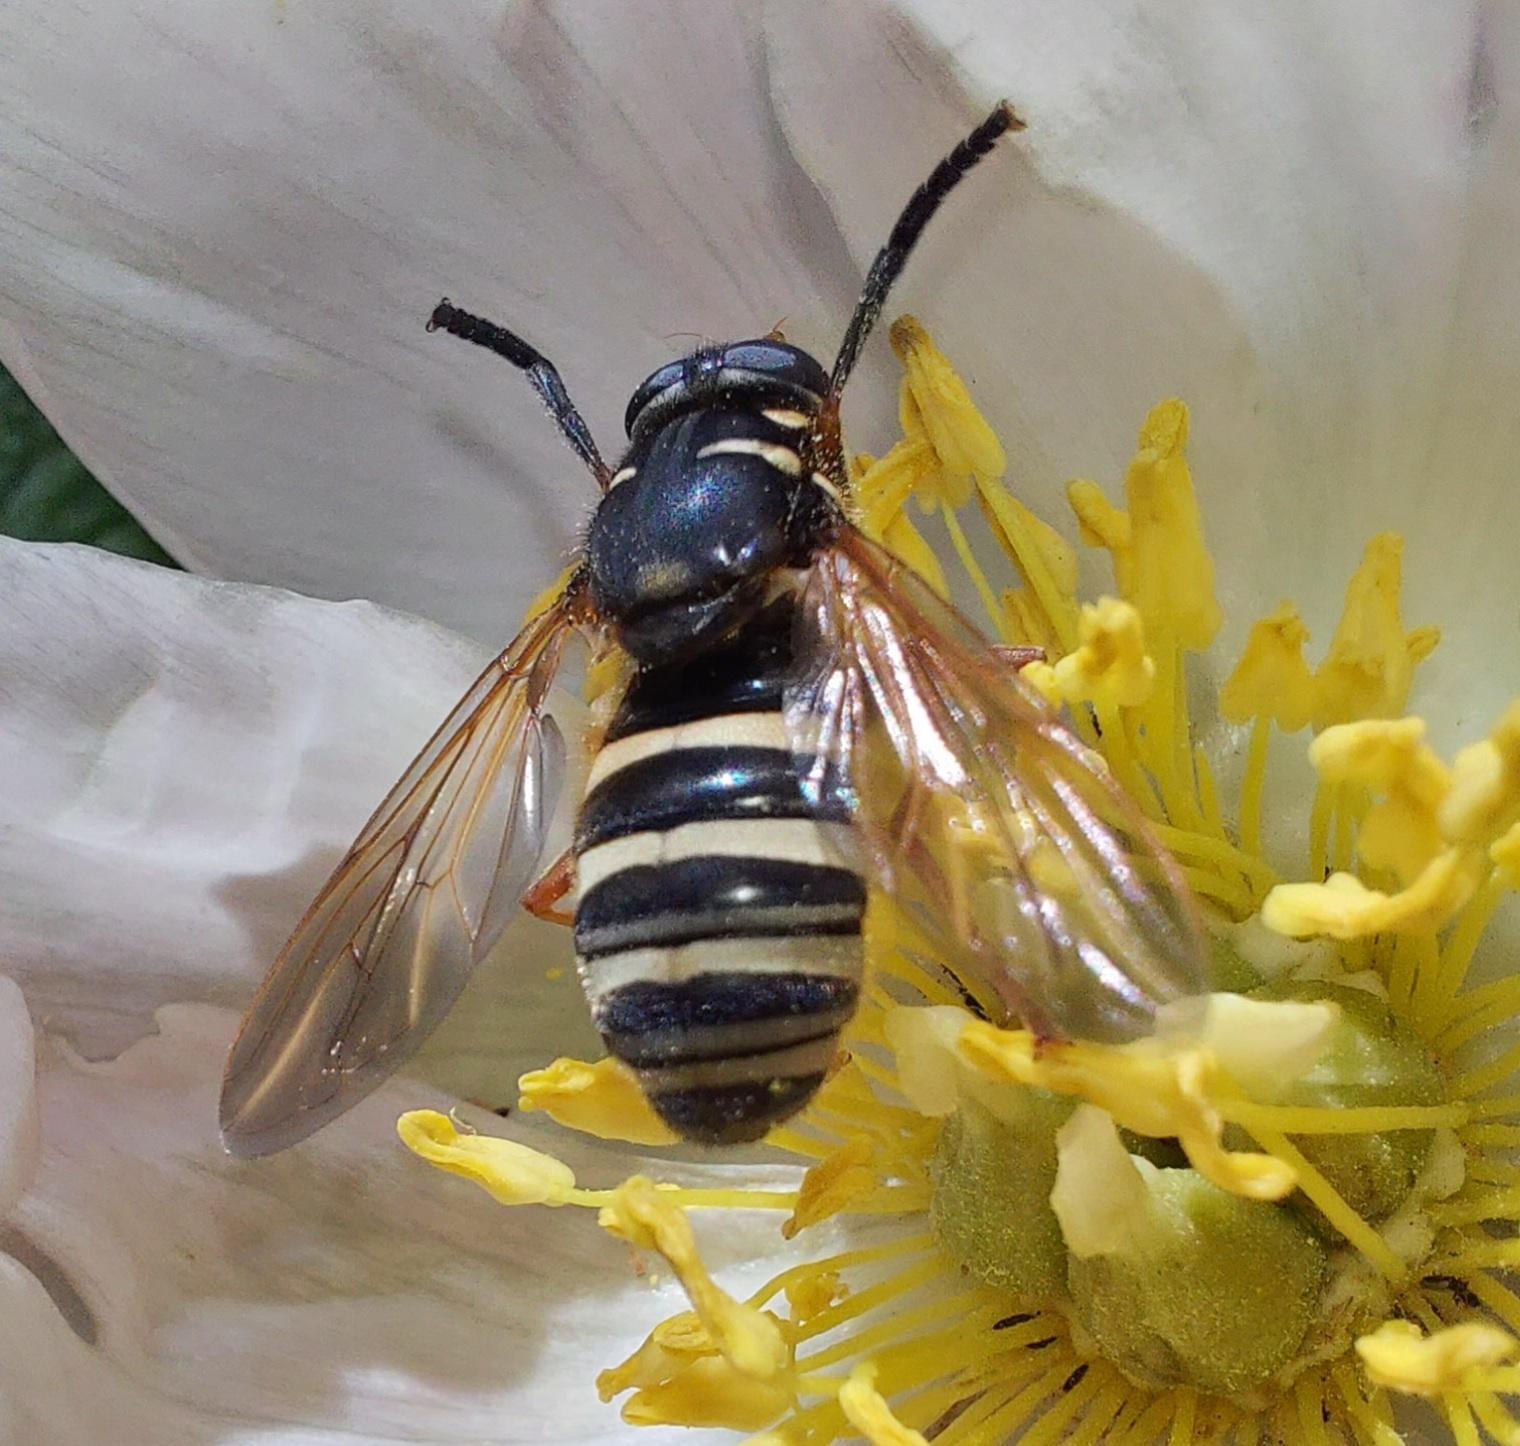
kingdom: Animalia
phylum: Arthropoda
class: Insecta
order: Diptera
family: Syrphidae
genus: Temnostoma
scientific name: Temnostoma apiforme
